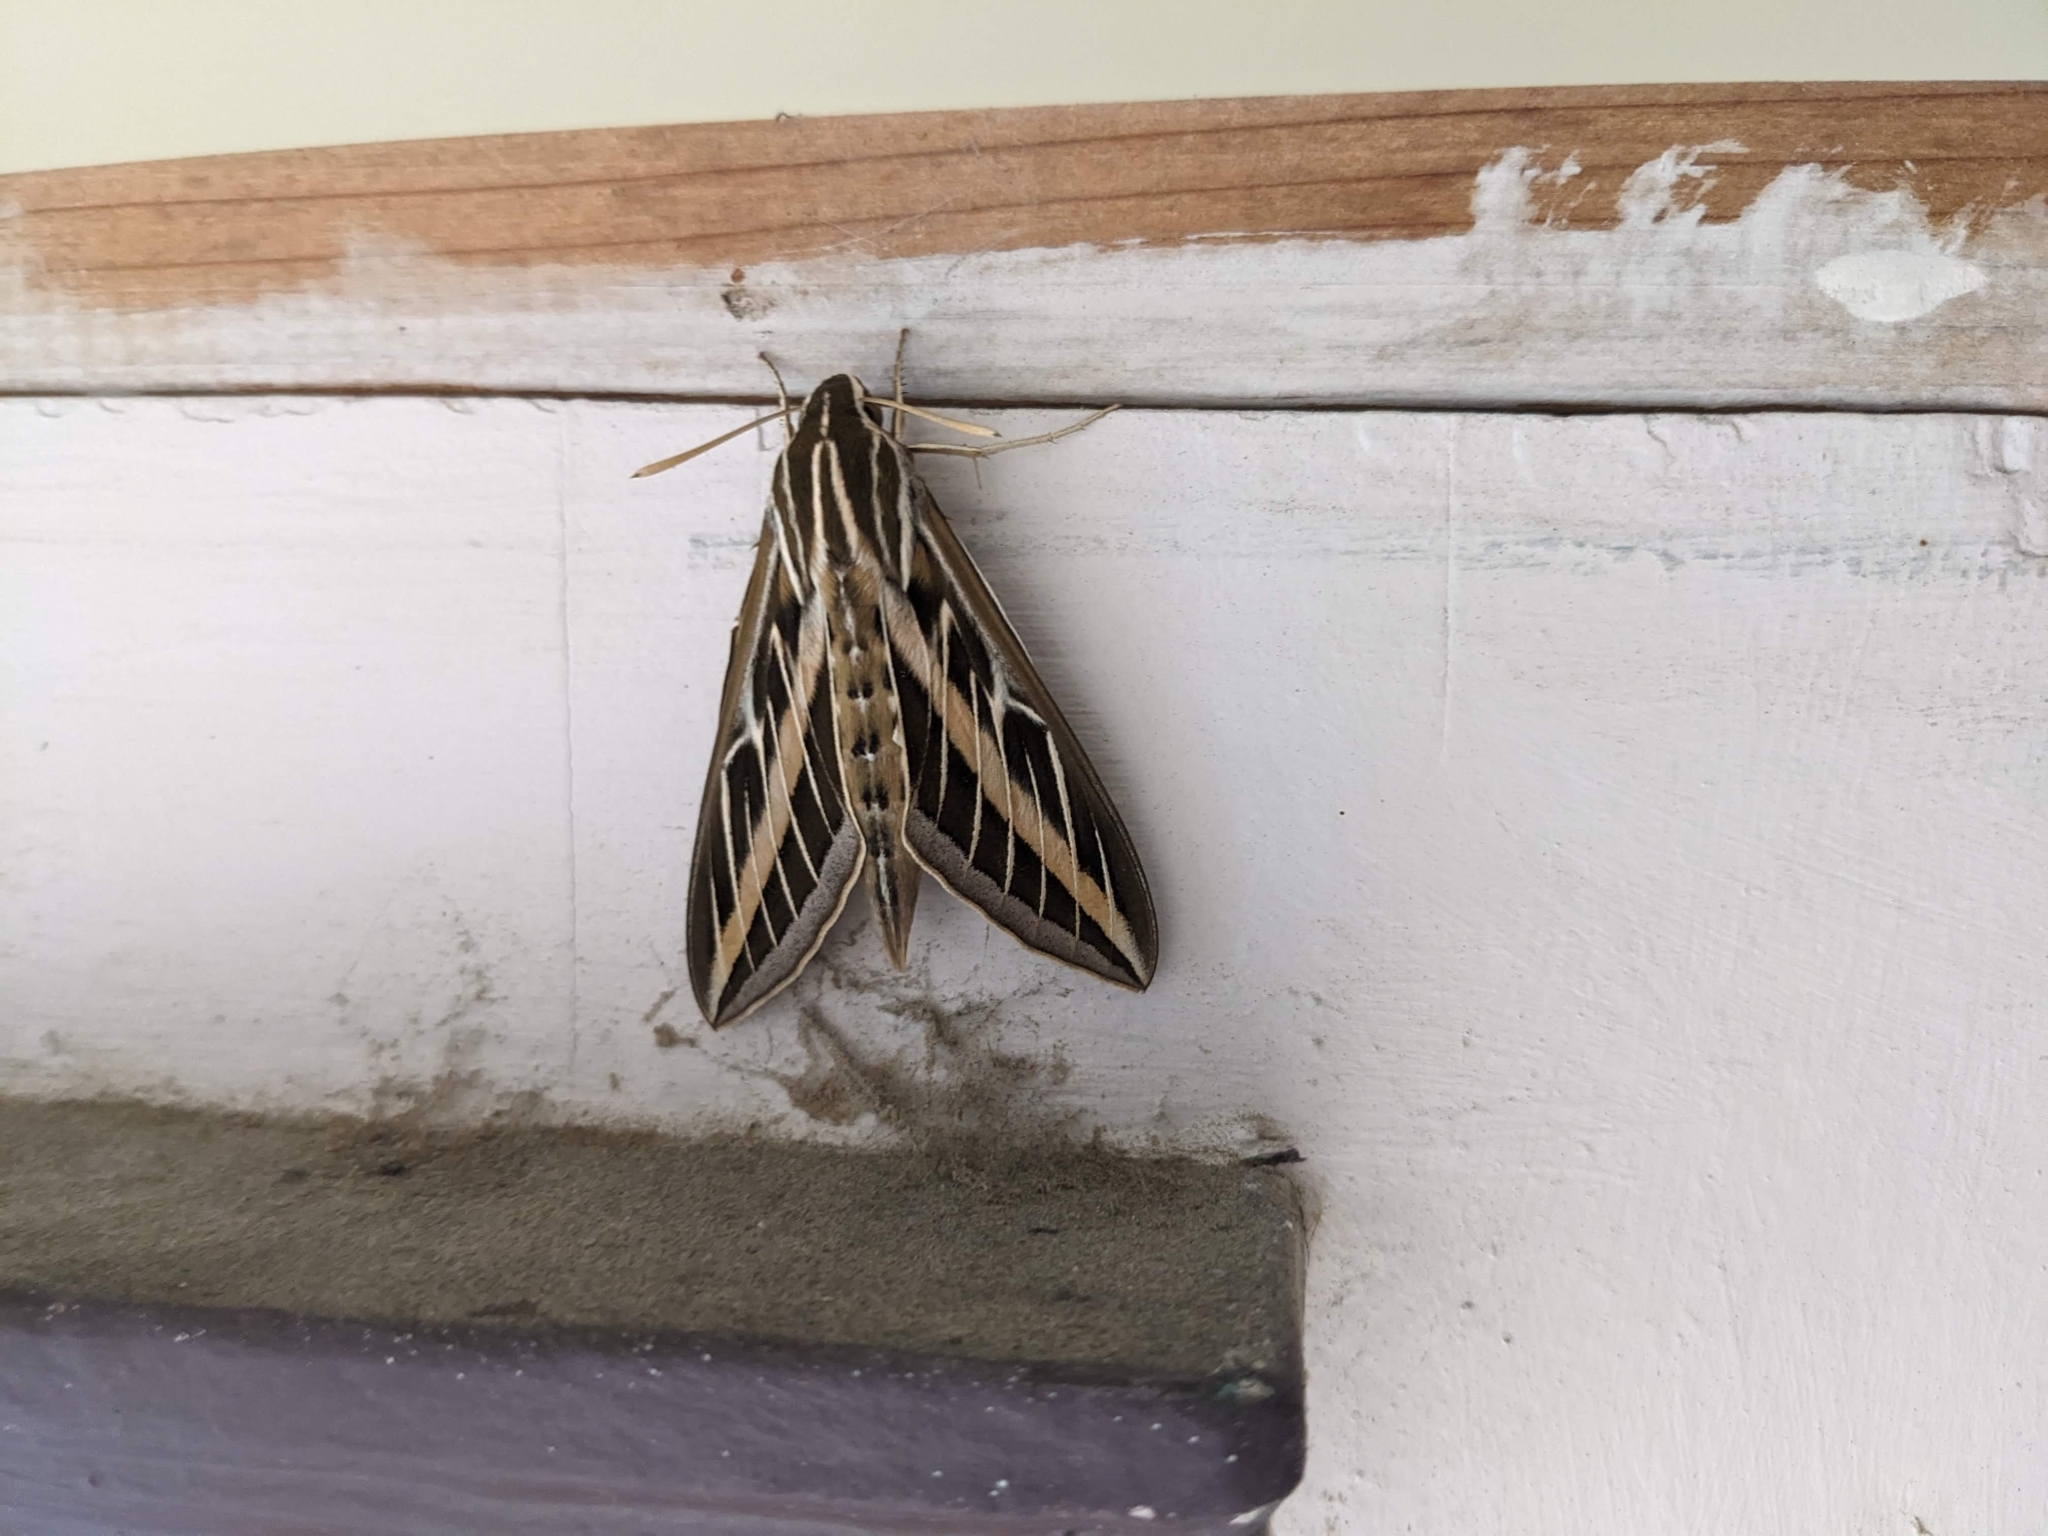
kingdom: Animalia
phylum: Arthropoda
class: Insecta
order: Lepidoptera
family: Sphingidae
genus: Hyles
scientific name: Hyles lineata
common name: White-lined sphinx
